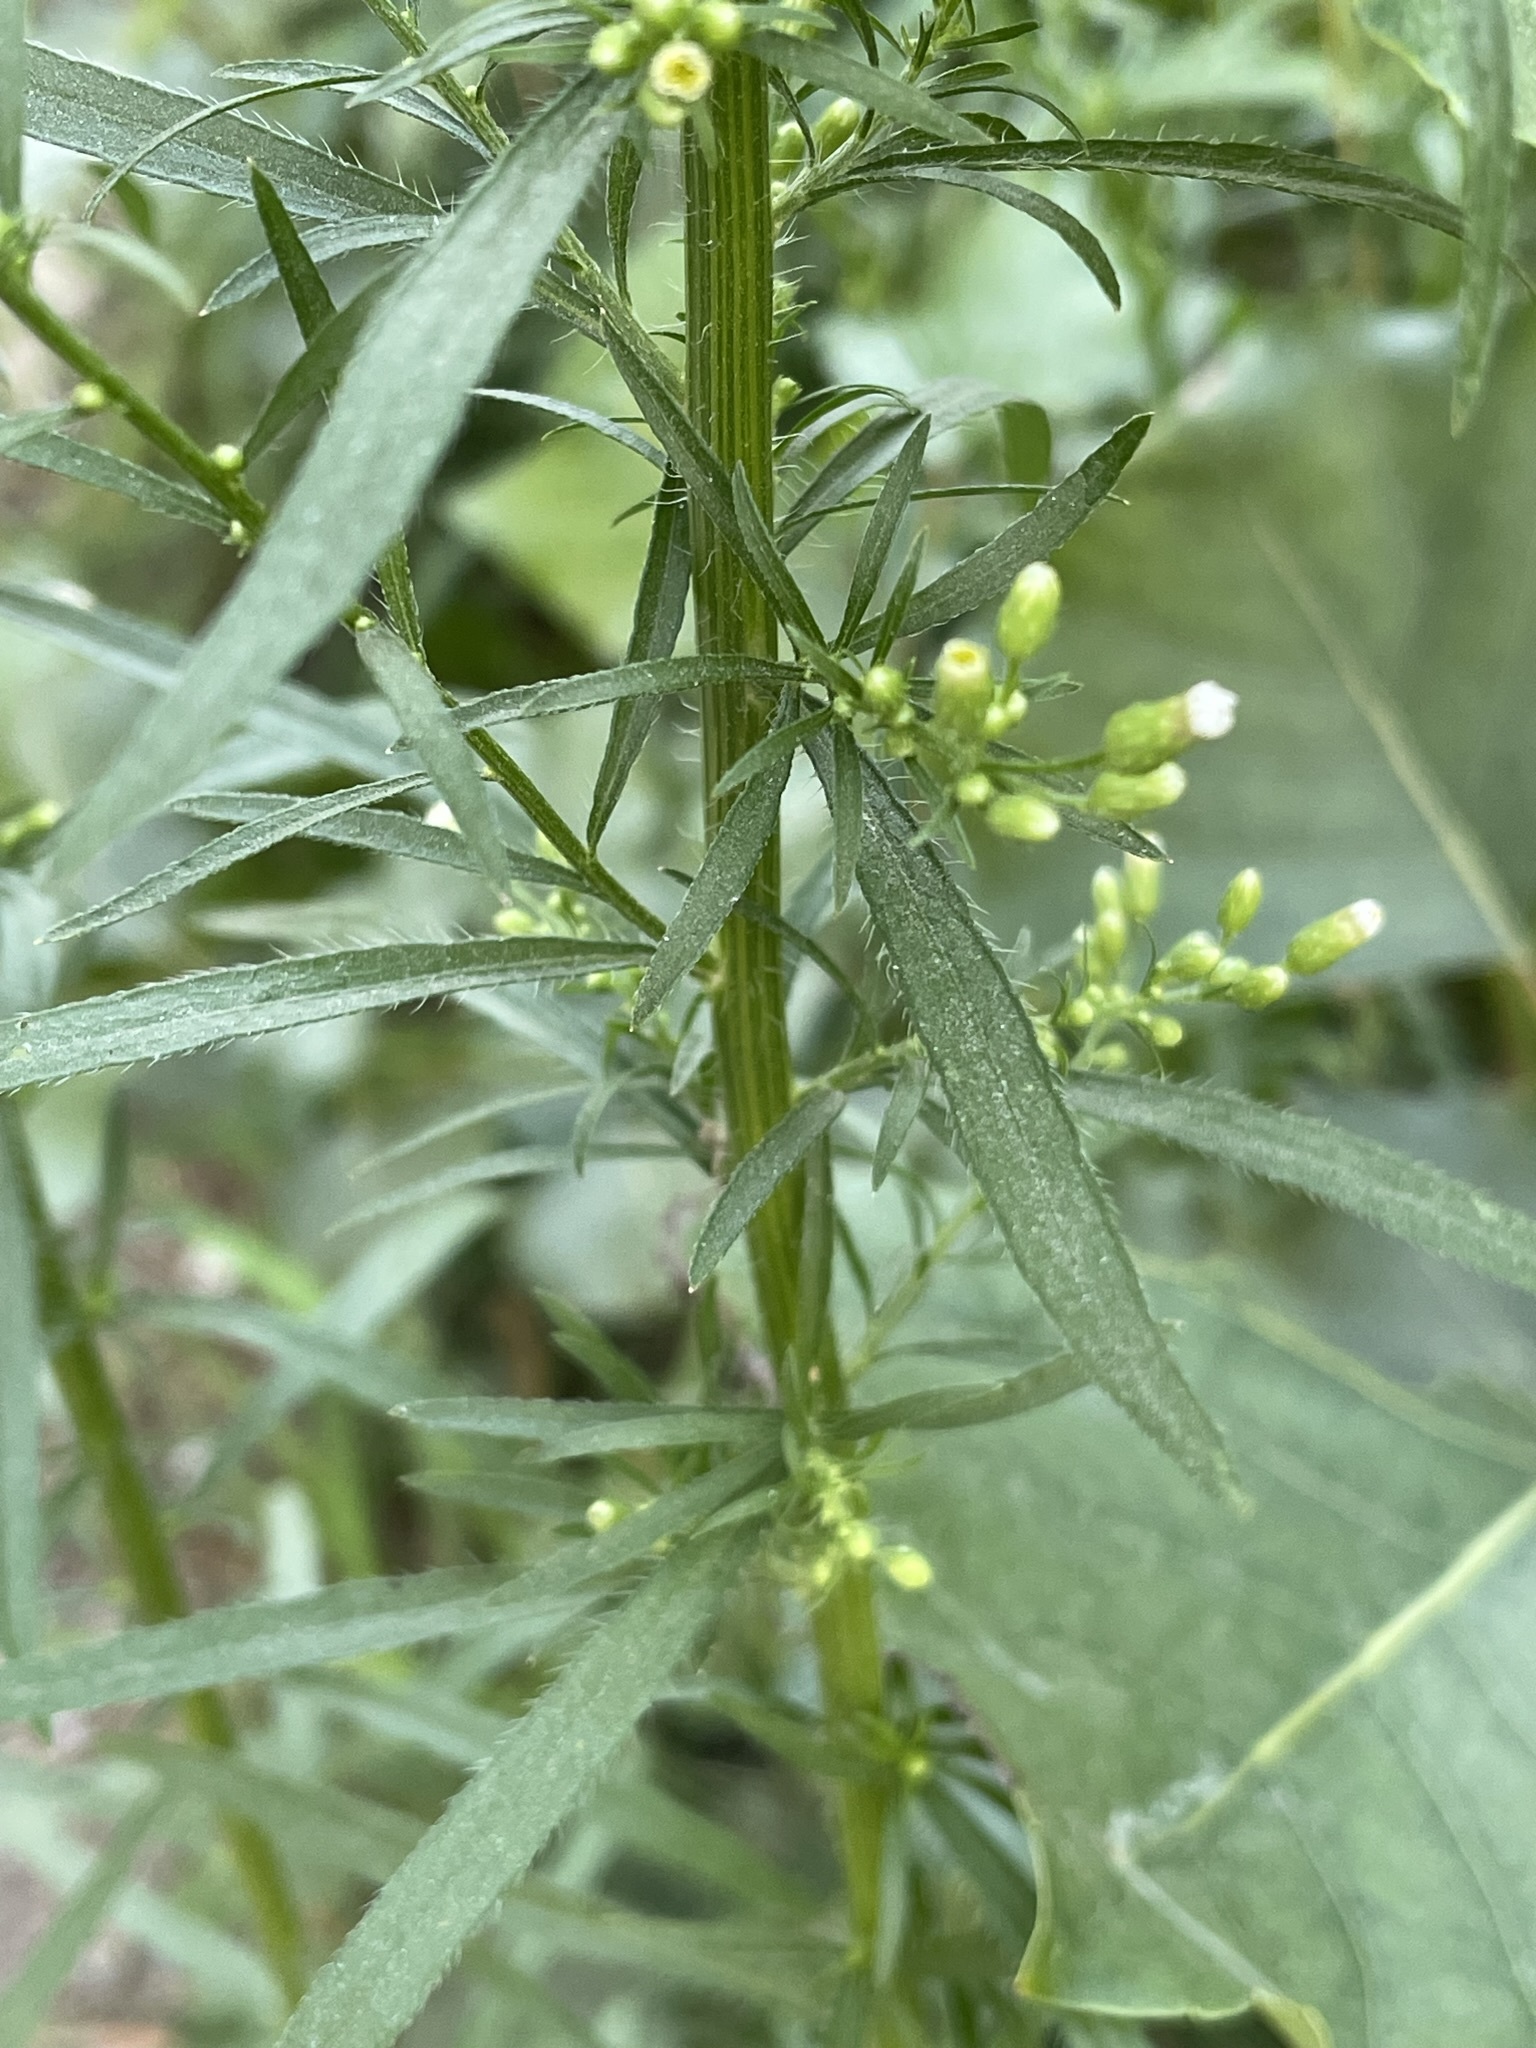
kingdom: Plantae
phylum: Tracheophyta
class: Magnoliopsida
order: Asterales
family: Asteraceae
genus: Erigeron
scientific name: Erigeron canadensis
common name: Canadian fleabane
